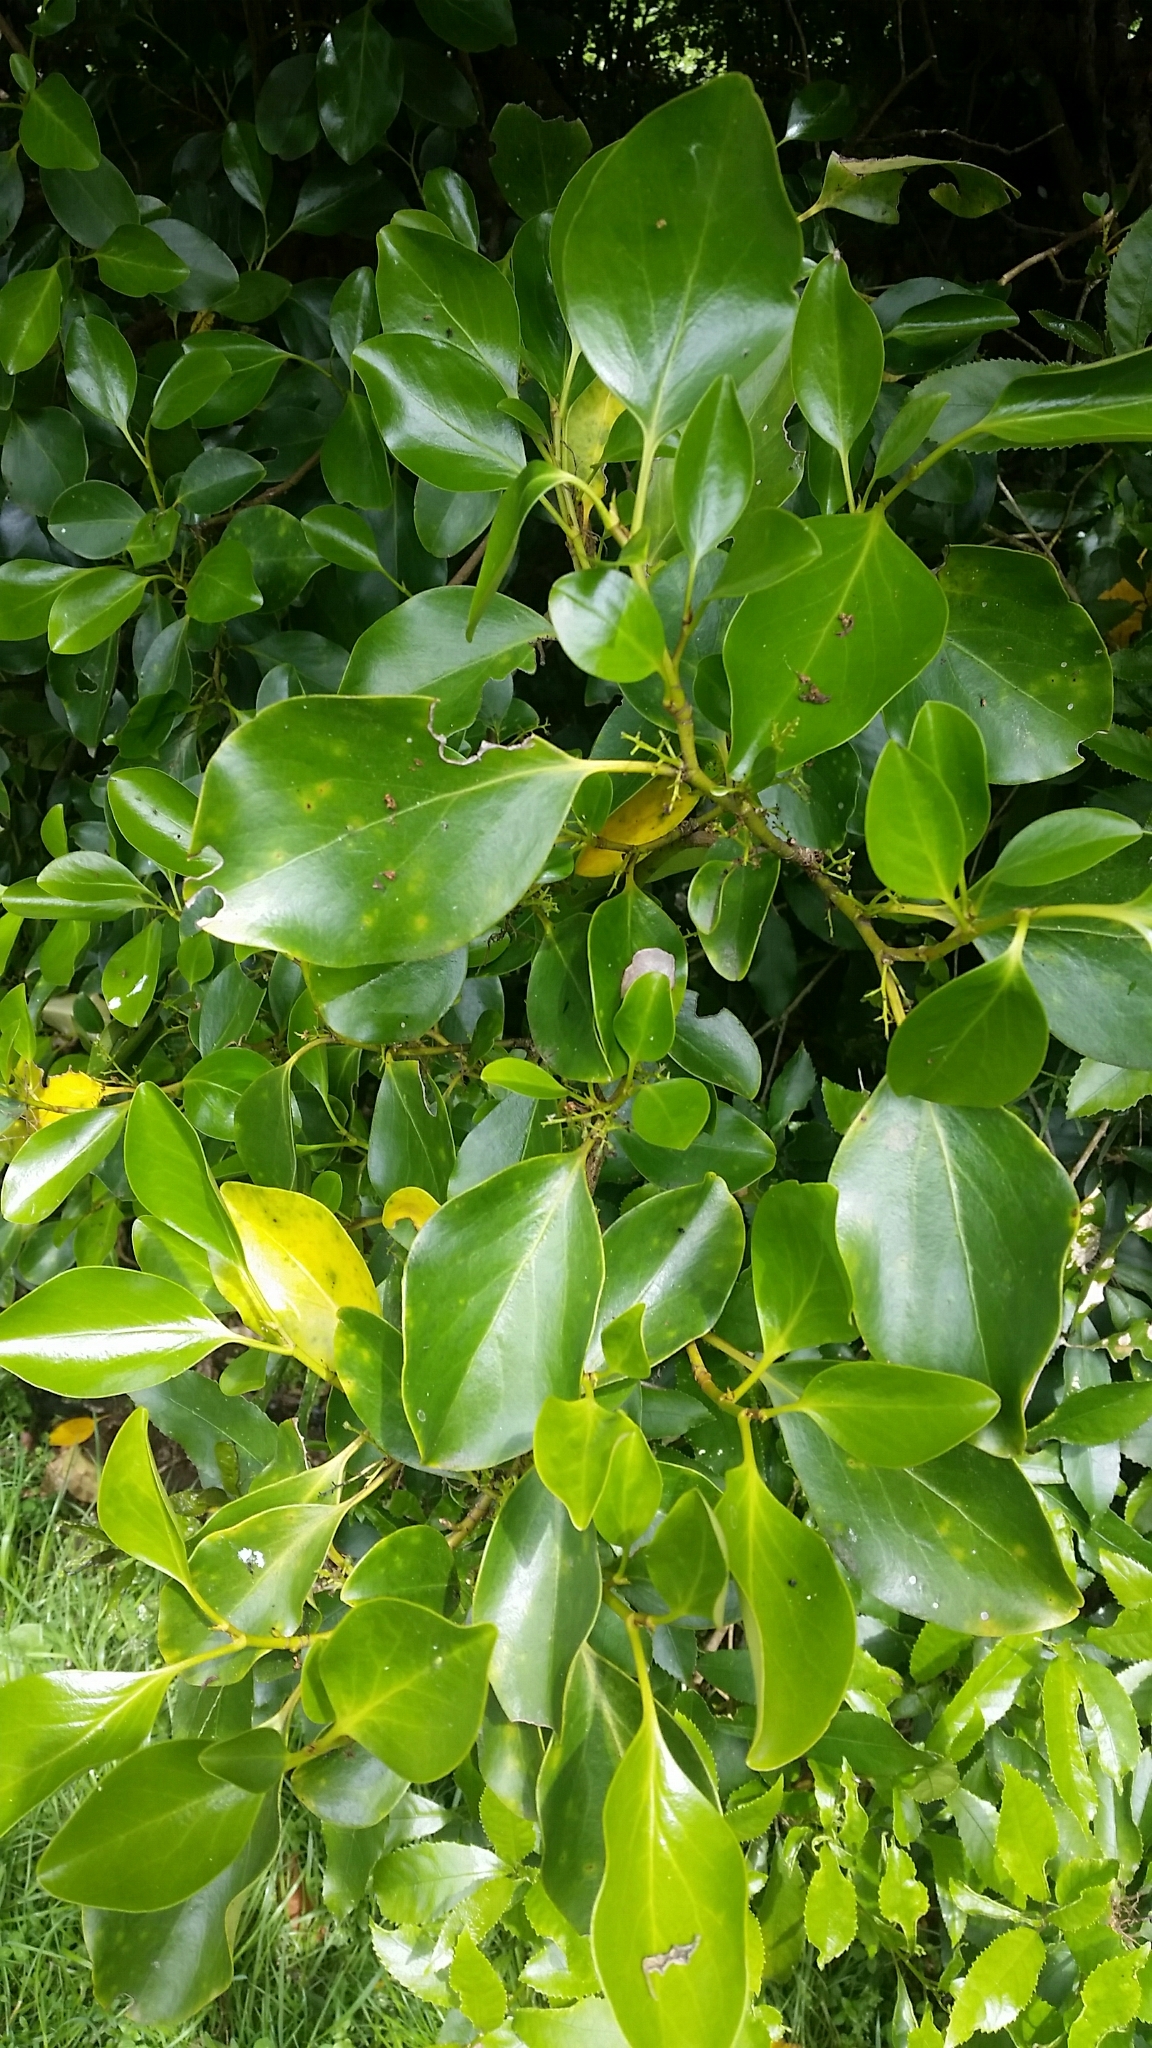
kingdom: Plantae
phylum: Tracheophyta
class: Magnoliopsida
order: Apiales
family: Griseliniaceae
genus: Griselinia
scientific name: Griselinia littoralis
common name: New zealand broadleaf
